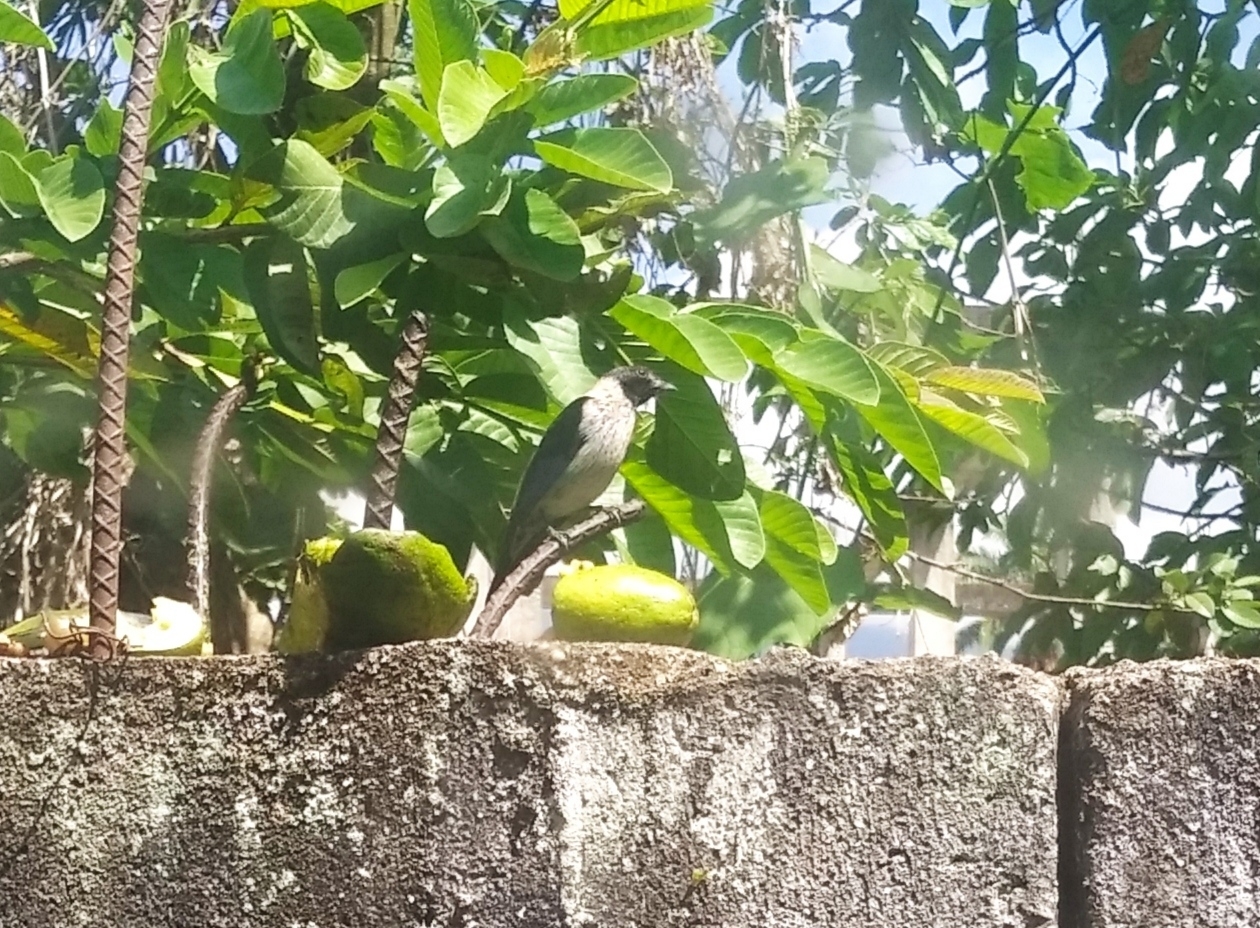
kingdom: Animalia
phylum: Chordata
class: Aves
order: Passeriformes
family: Thraupidae
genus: Stilpnia
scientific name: Stilpnia cyanoptera
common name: Black-headed tanager
